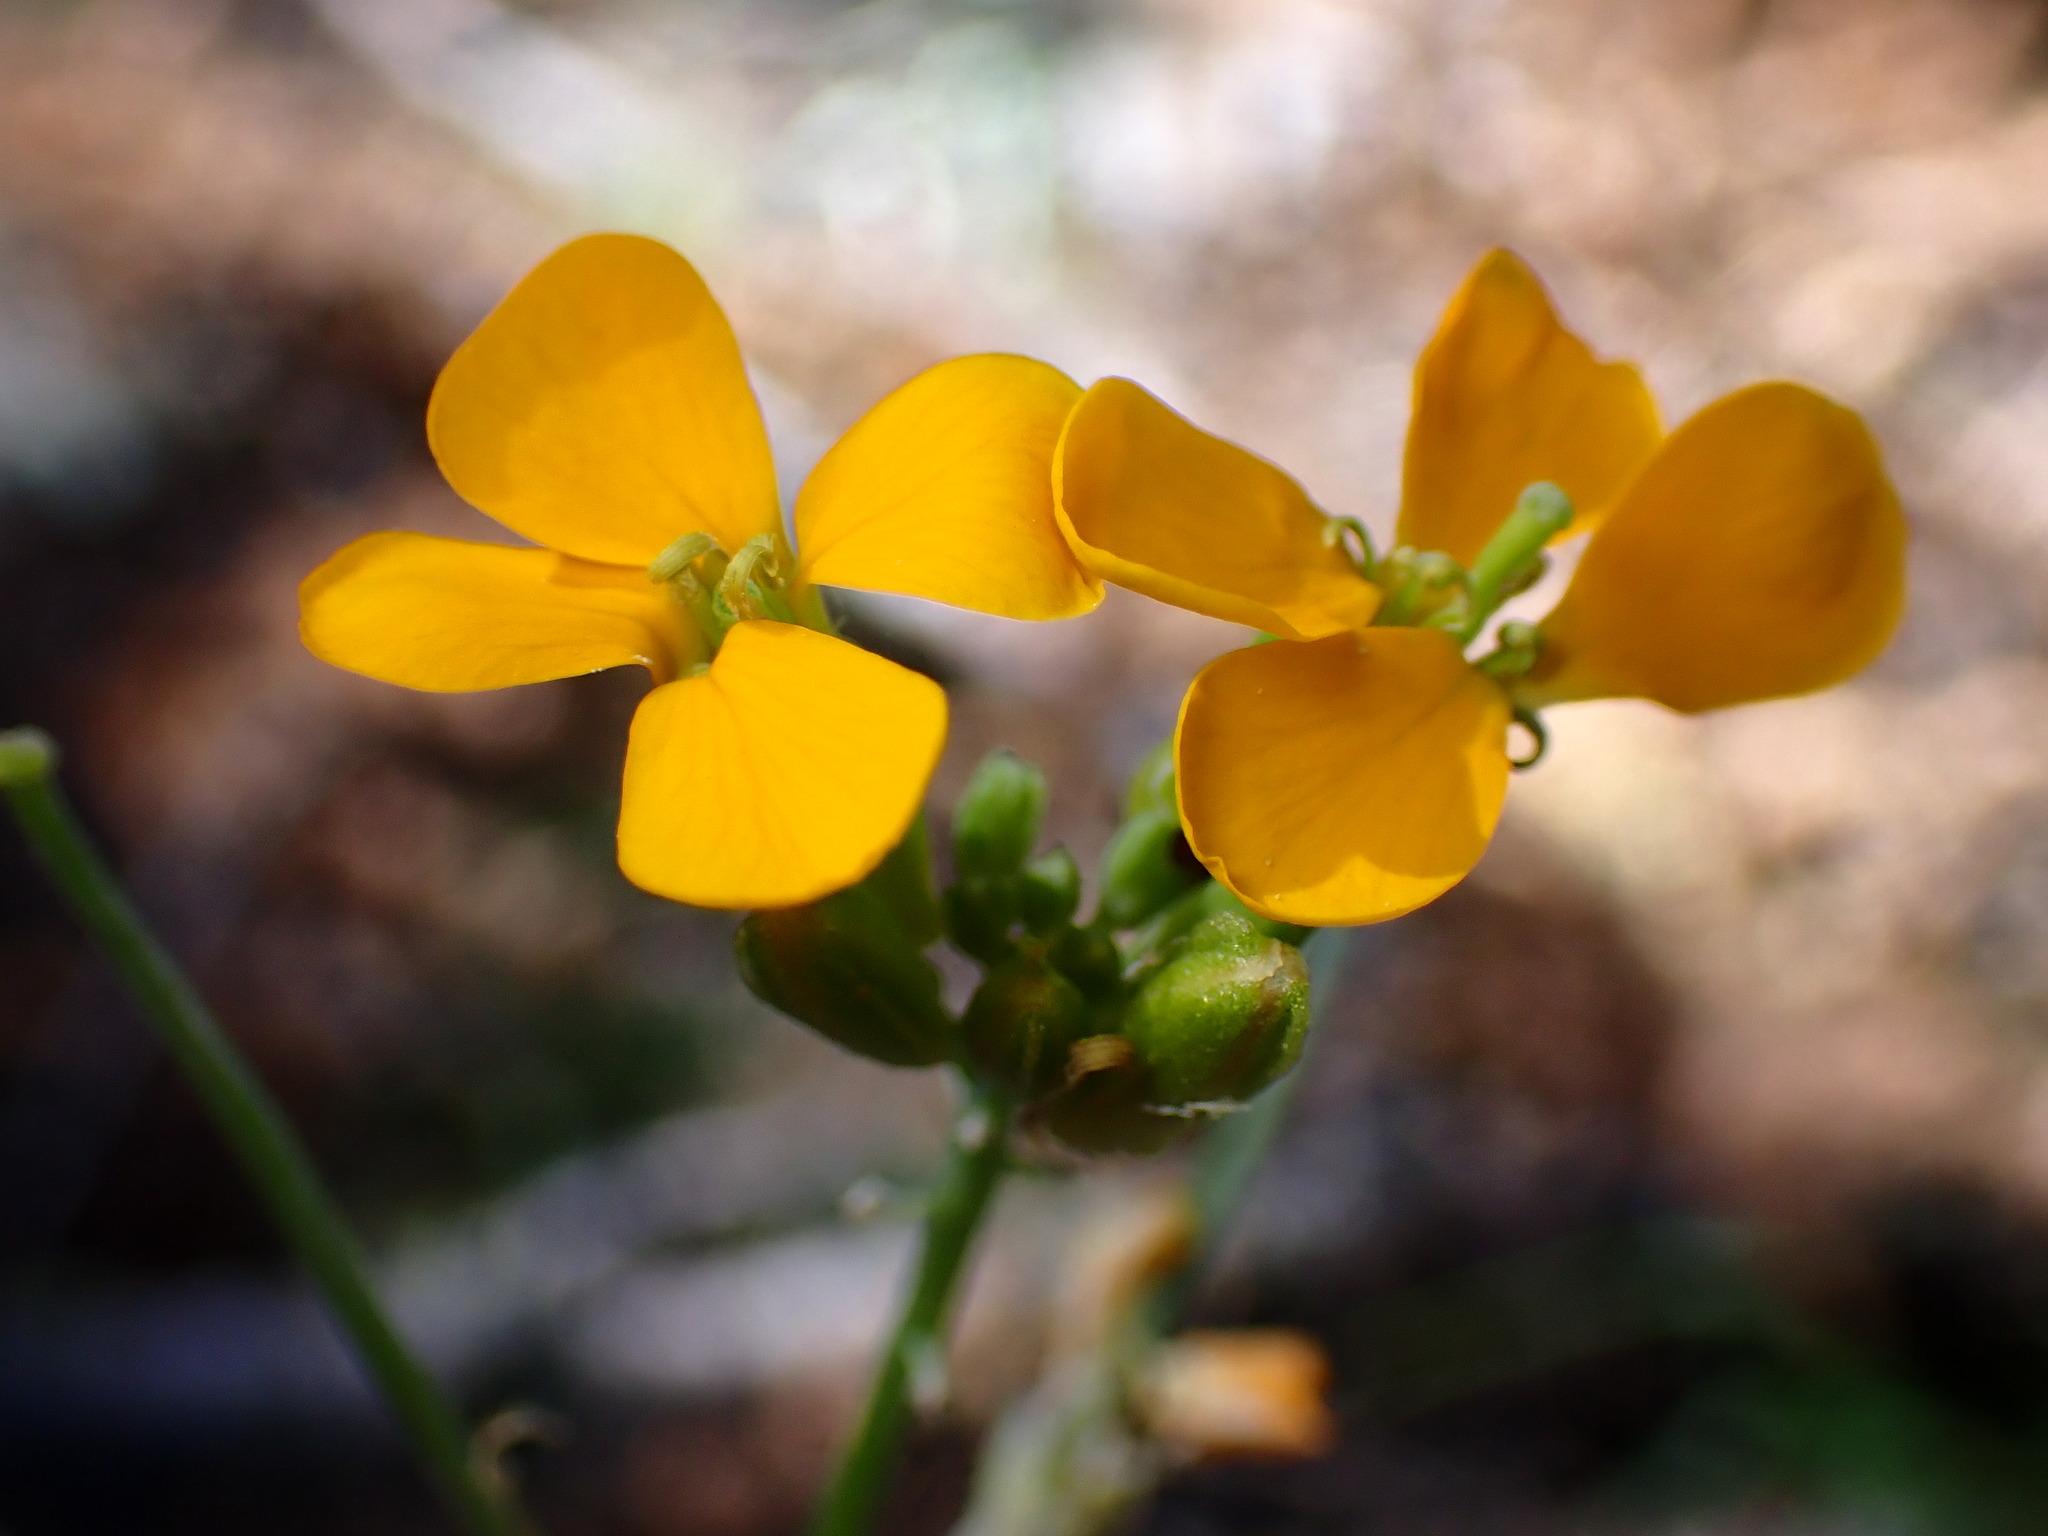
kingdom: Plantae
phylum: Tracheophyta
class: Magnoliopsida
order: Brassicales
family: Brassicaceae
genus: Erysimum
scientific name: Erysimum capitatum
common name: Western wallflower
